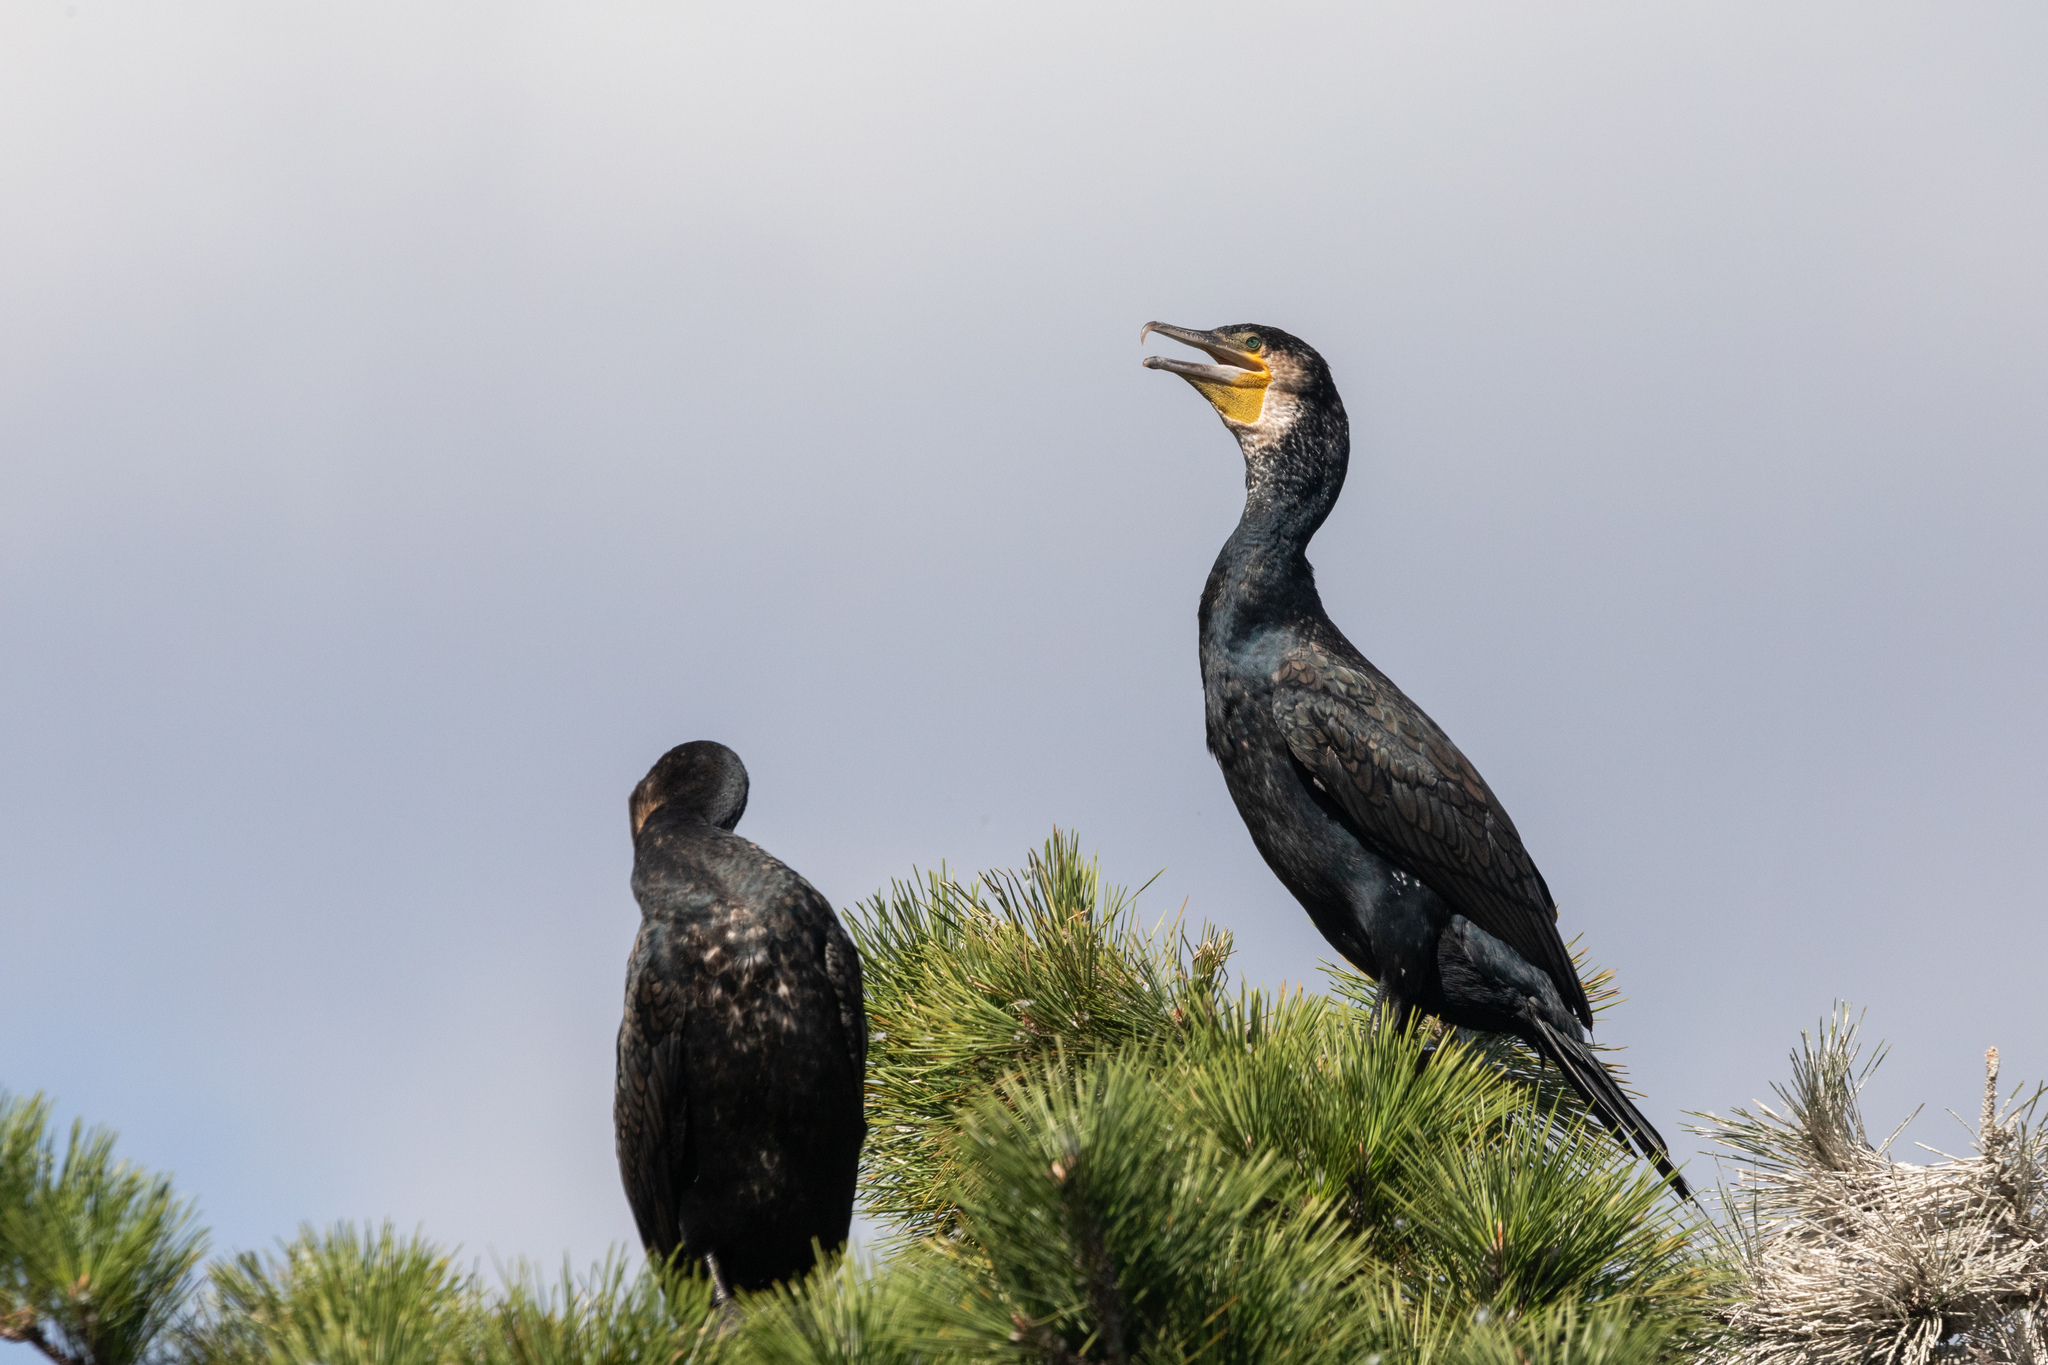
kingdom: Animalia
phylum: Chordata
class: Aves
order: Suliformes
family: Phalacrocoracidae
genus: Phalacrocorax
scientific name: Phalacrocorax carbo
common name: Great cormorant
